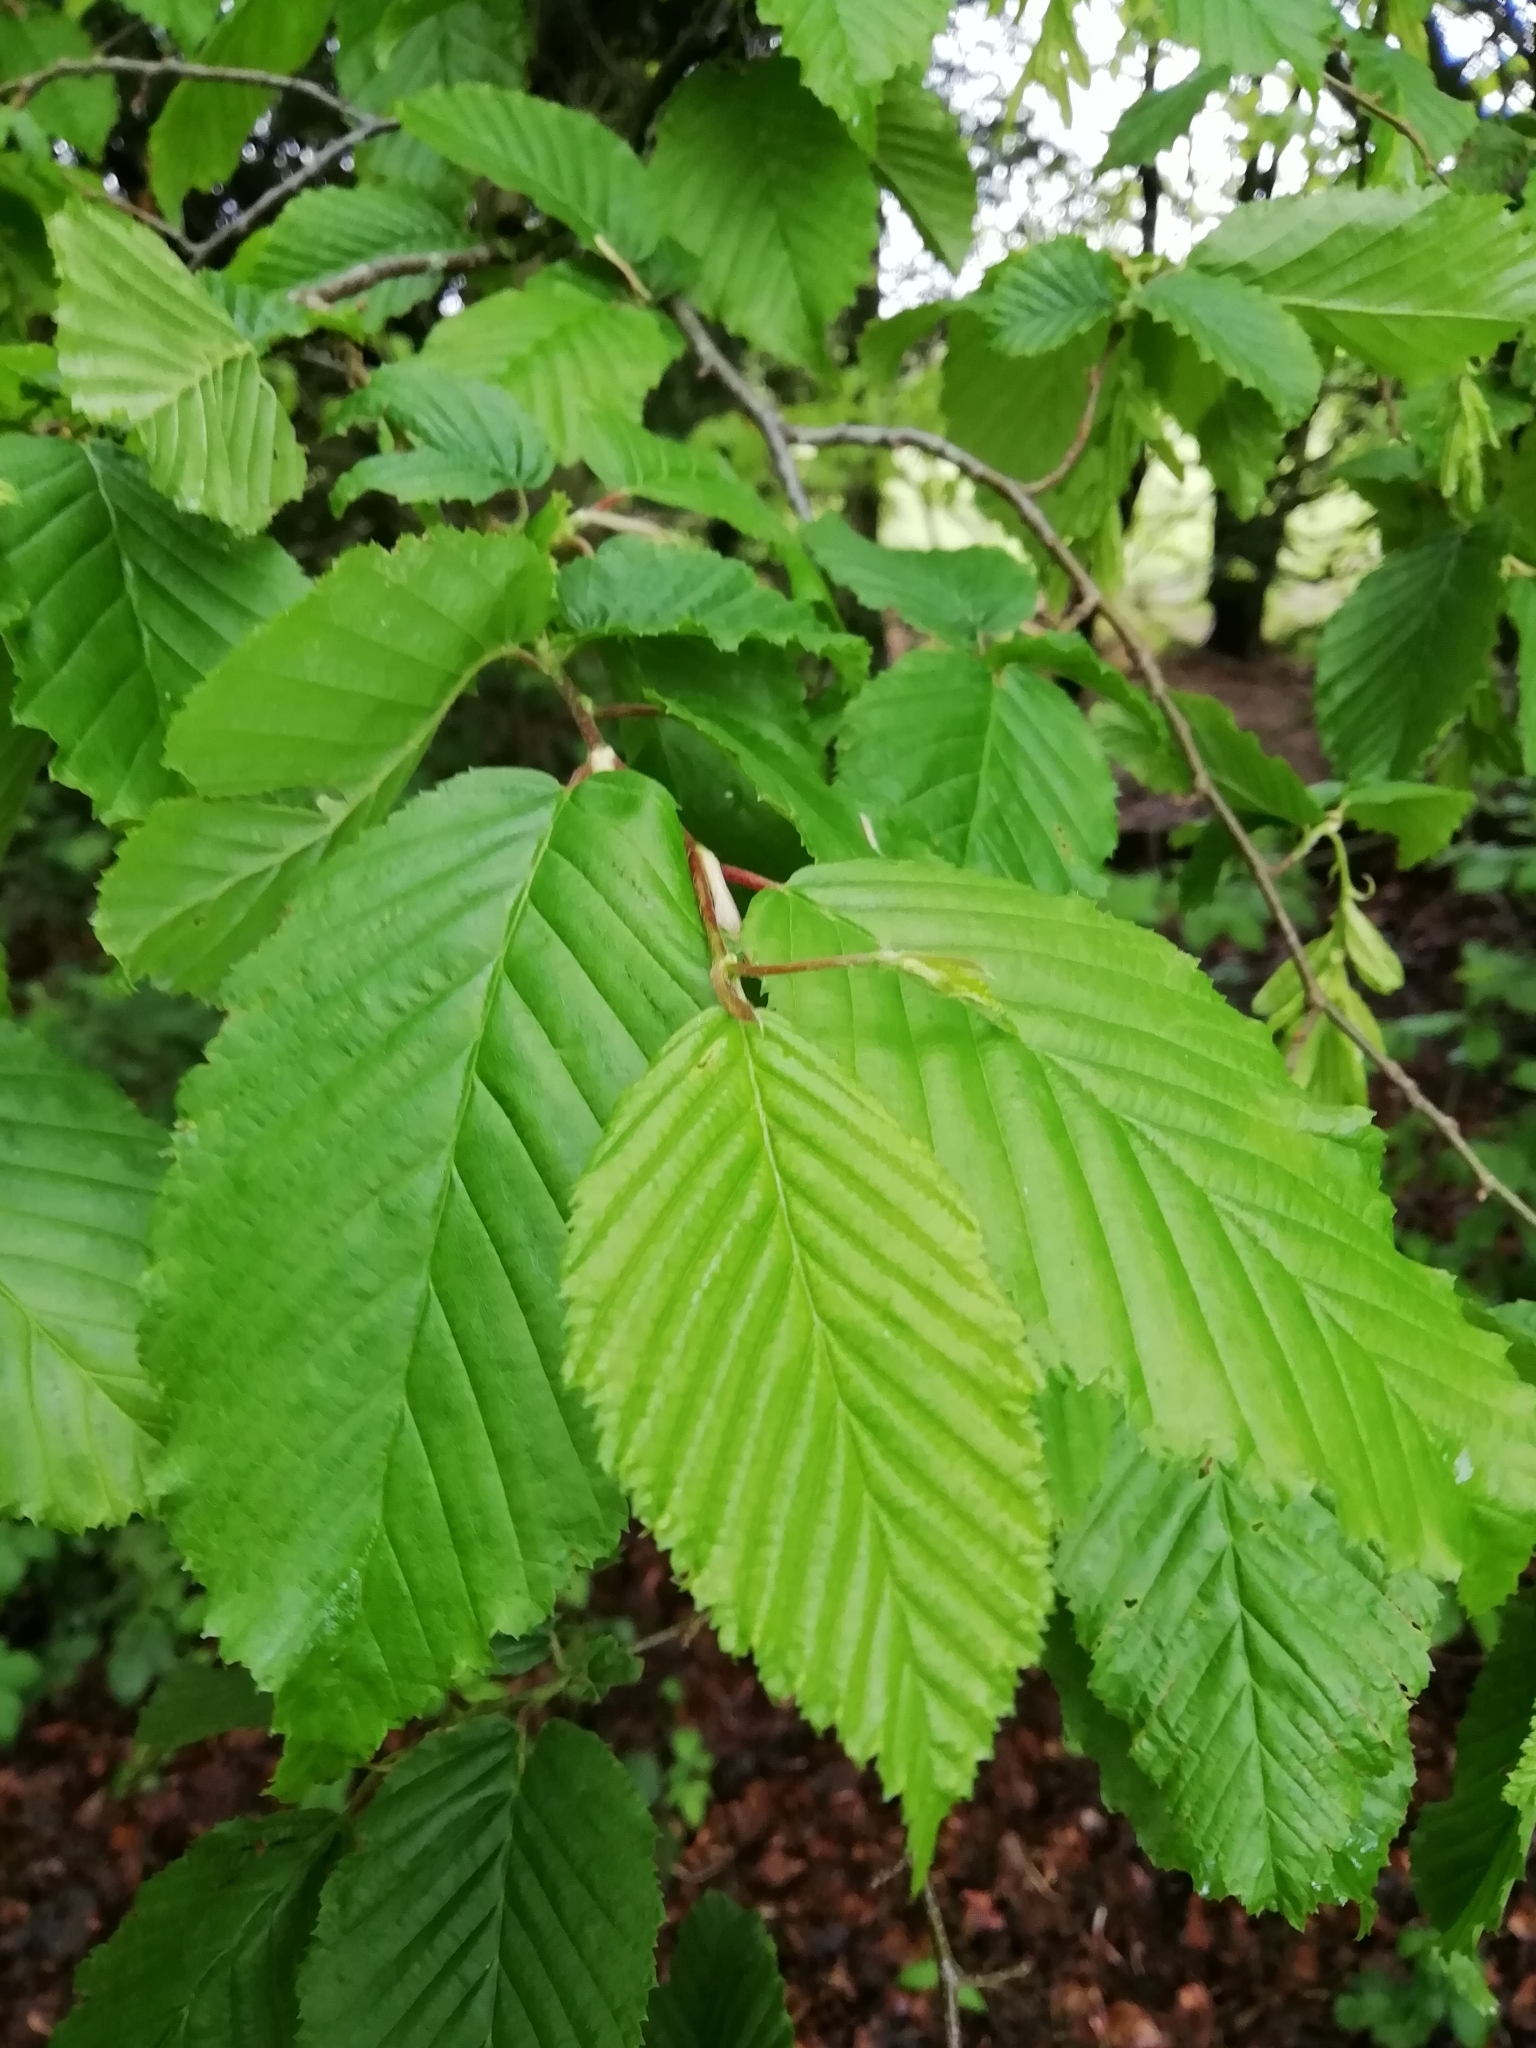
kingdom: Plantae
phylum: Tracheophyta
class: Magnoliopsida
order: Fagales
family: Betulaceae
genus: Carpinus
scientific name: Carpinus betulus
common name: Hornbeam
